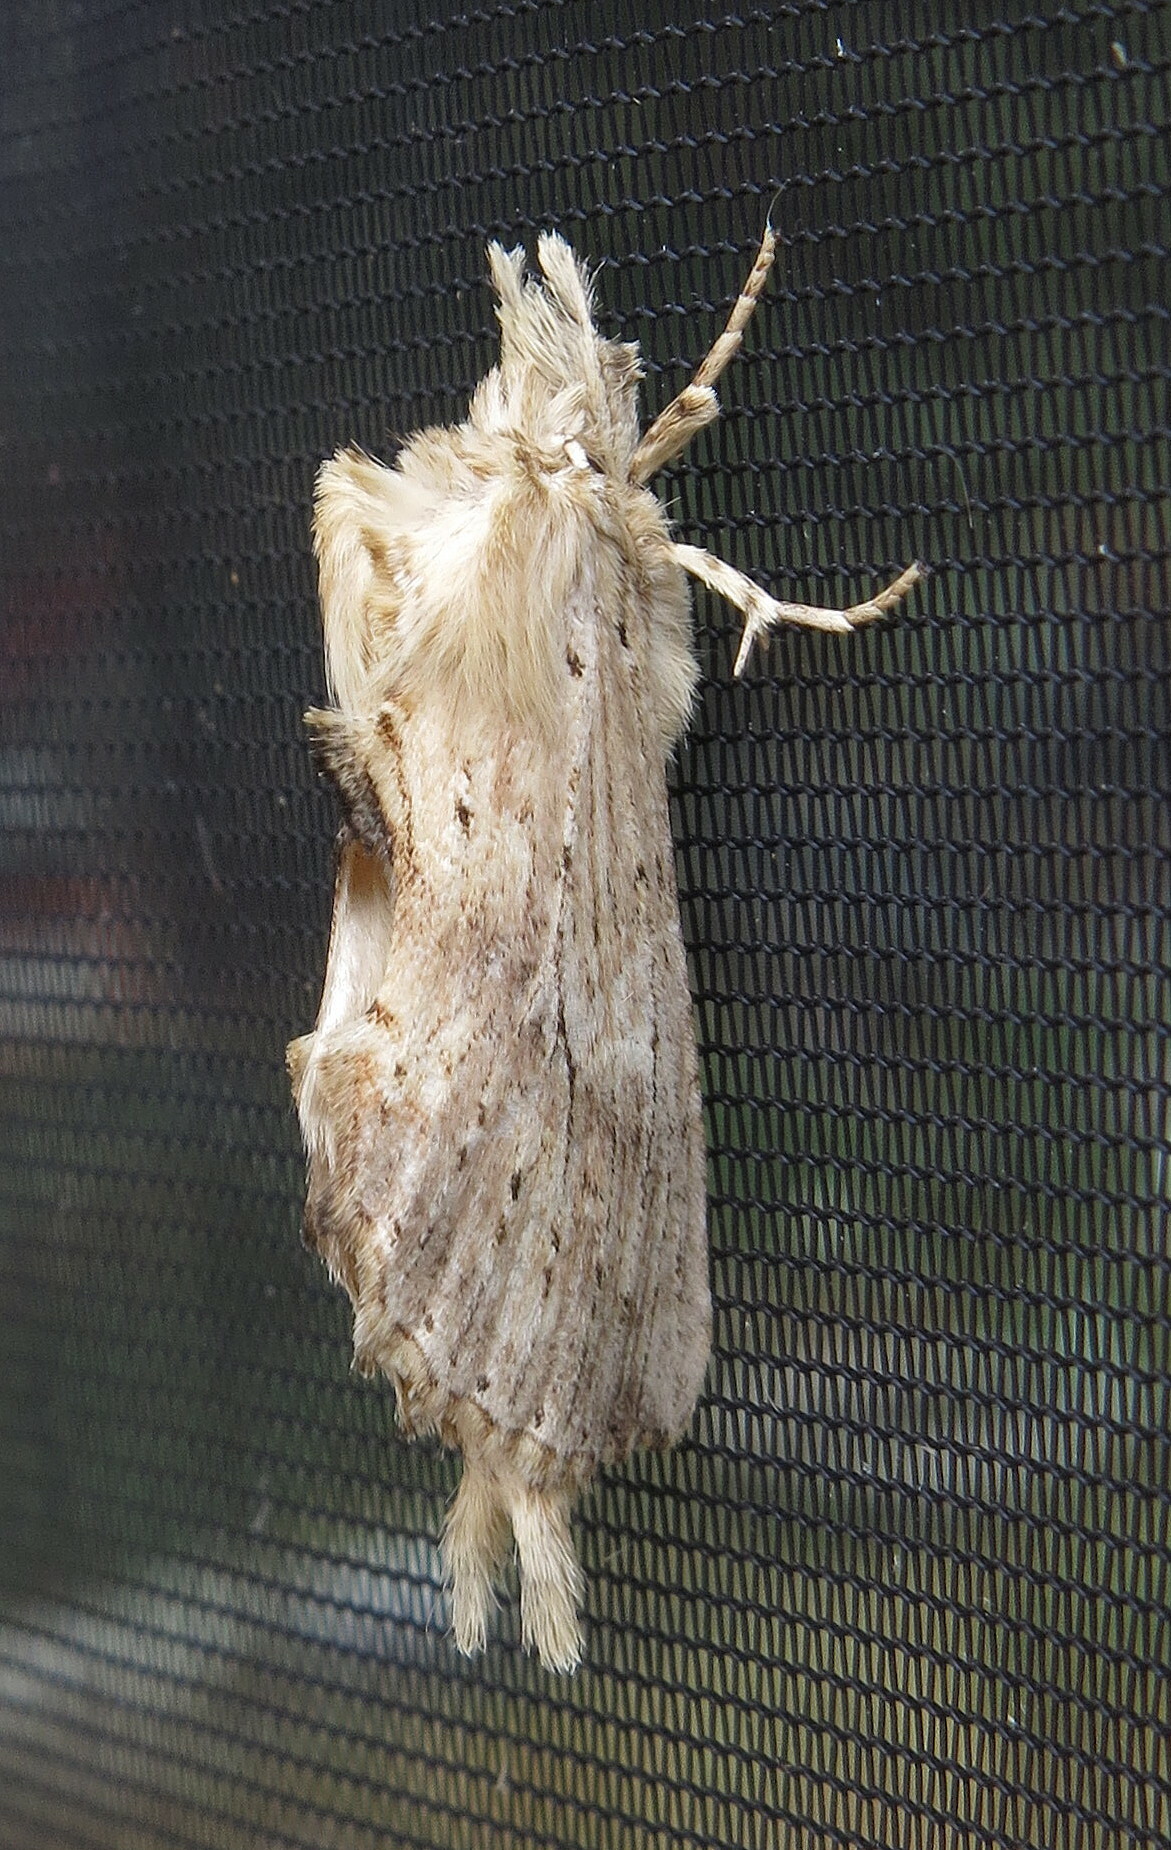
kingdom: Animalia
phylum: Arthropoda
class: Insecta
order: Lepidoptera
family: Notodontidae
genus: Pterostoma
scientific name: Pterostoma palpina
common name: Pale prominent
